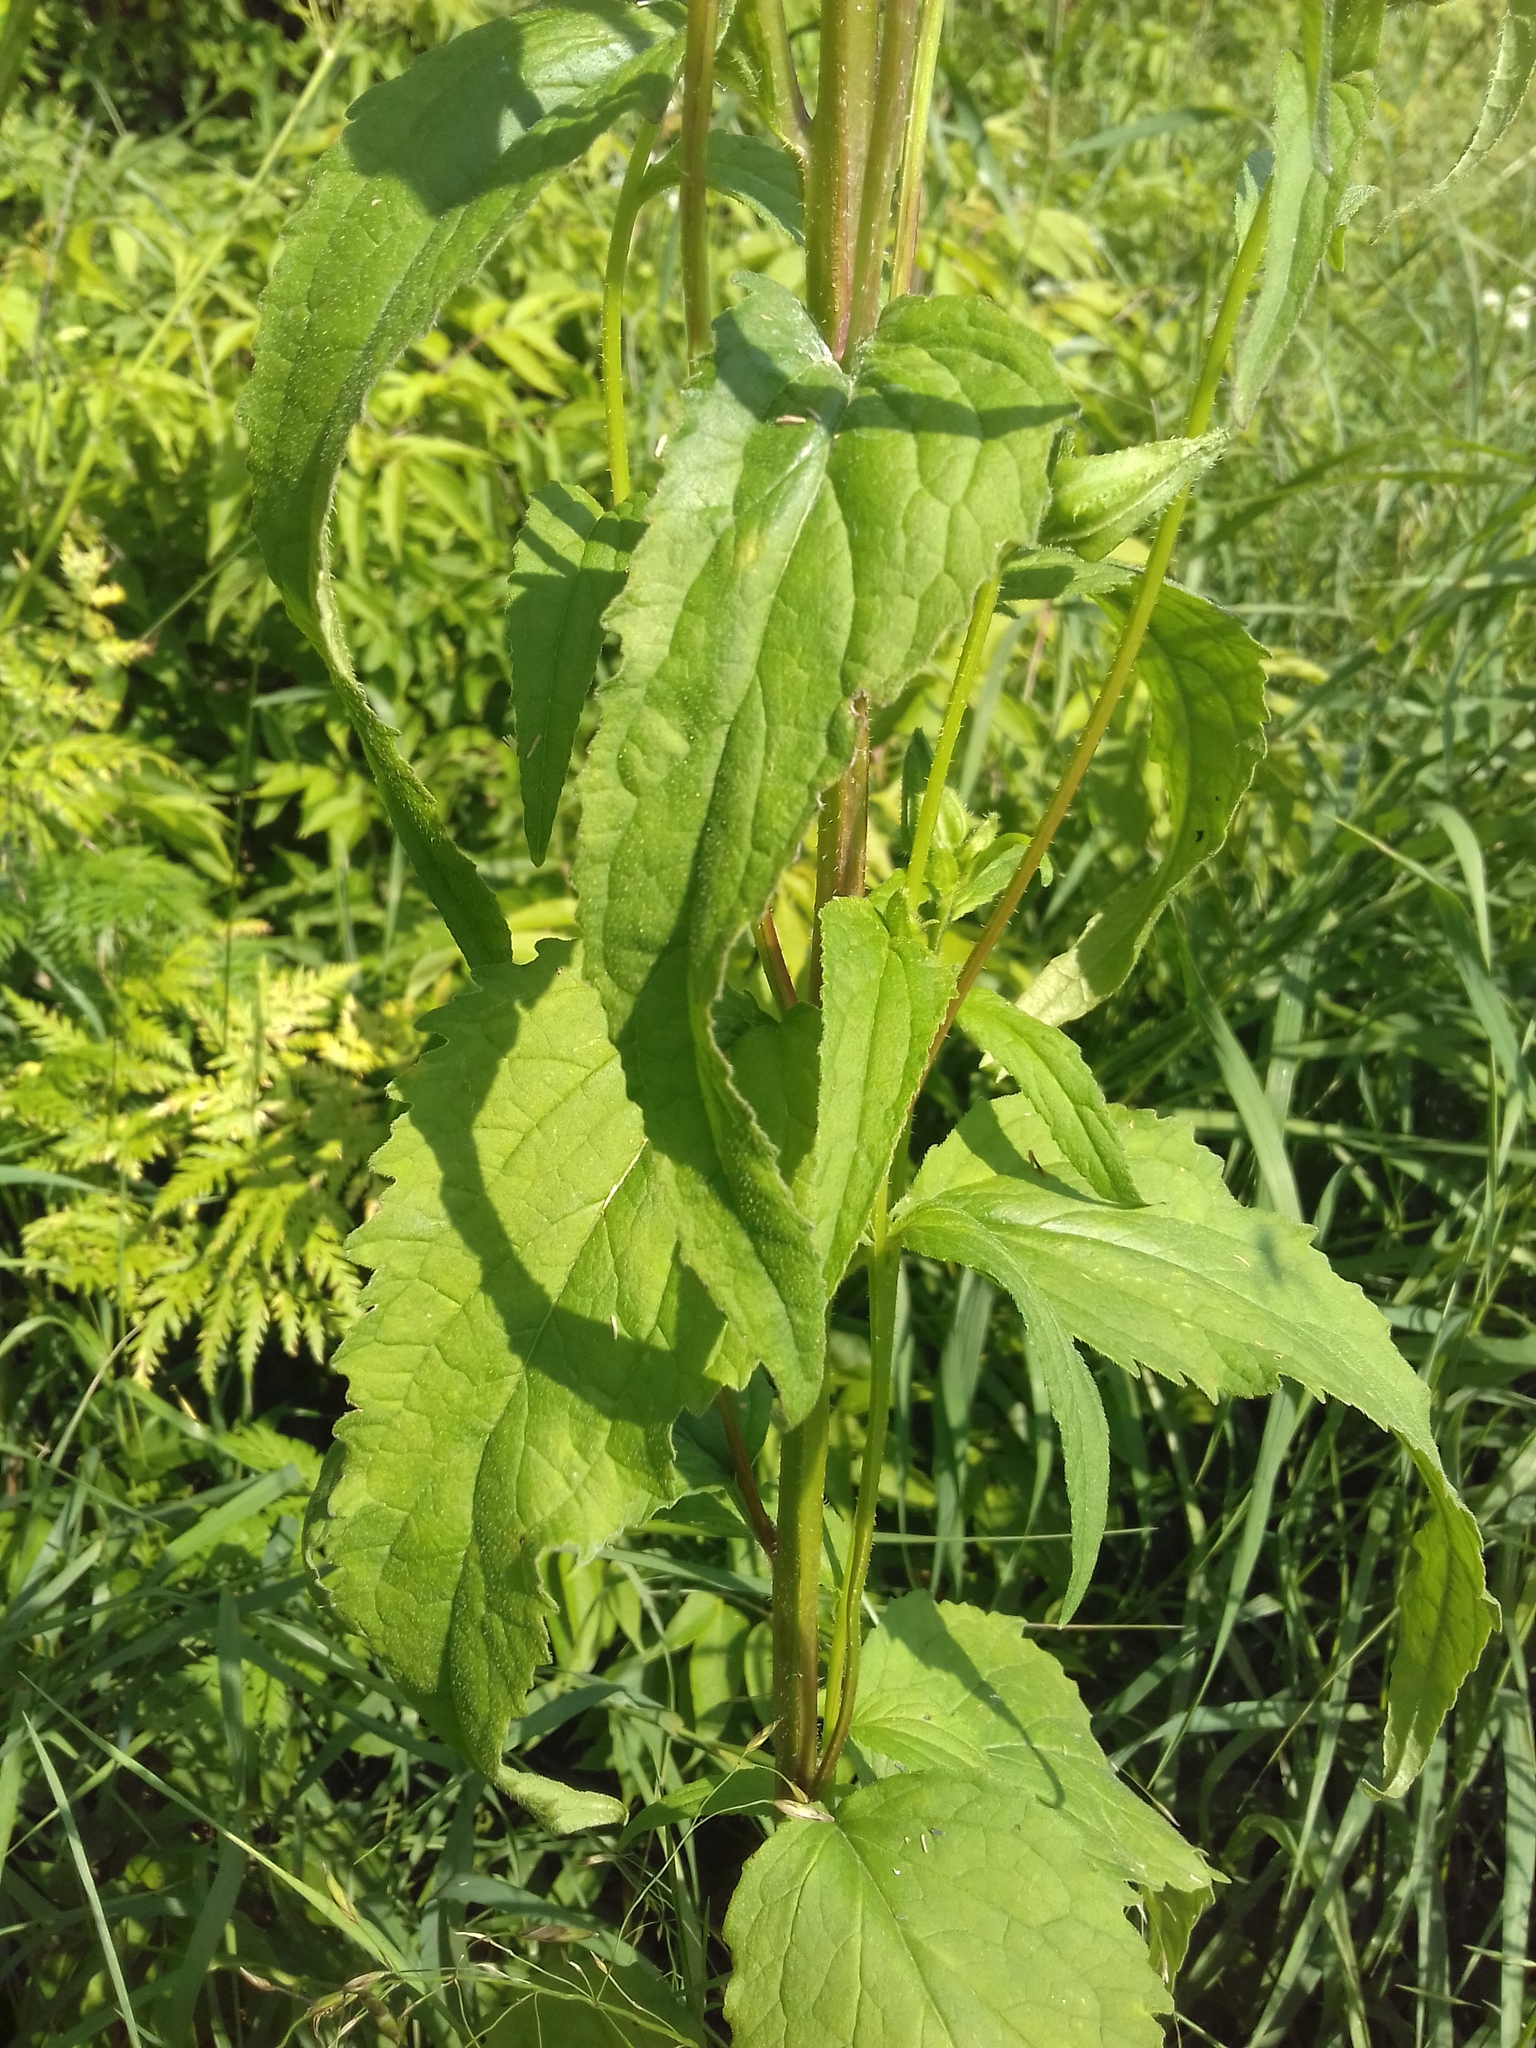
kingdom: Plantae
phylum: Tracheophyta
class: Magnoliopsida
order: Asterales
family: Campanulaceae
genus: Campanula
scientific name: Campanula trachelium
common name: Nettle-leaved bellflower
